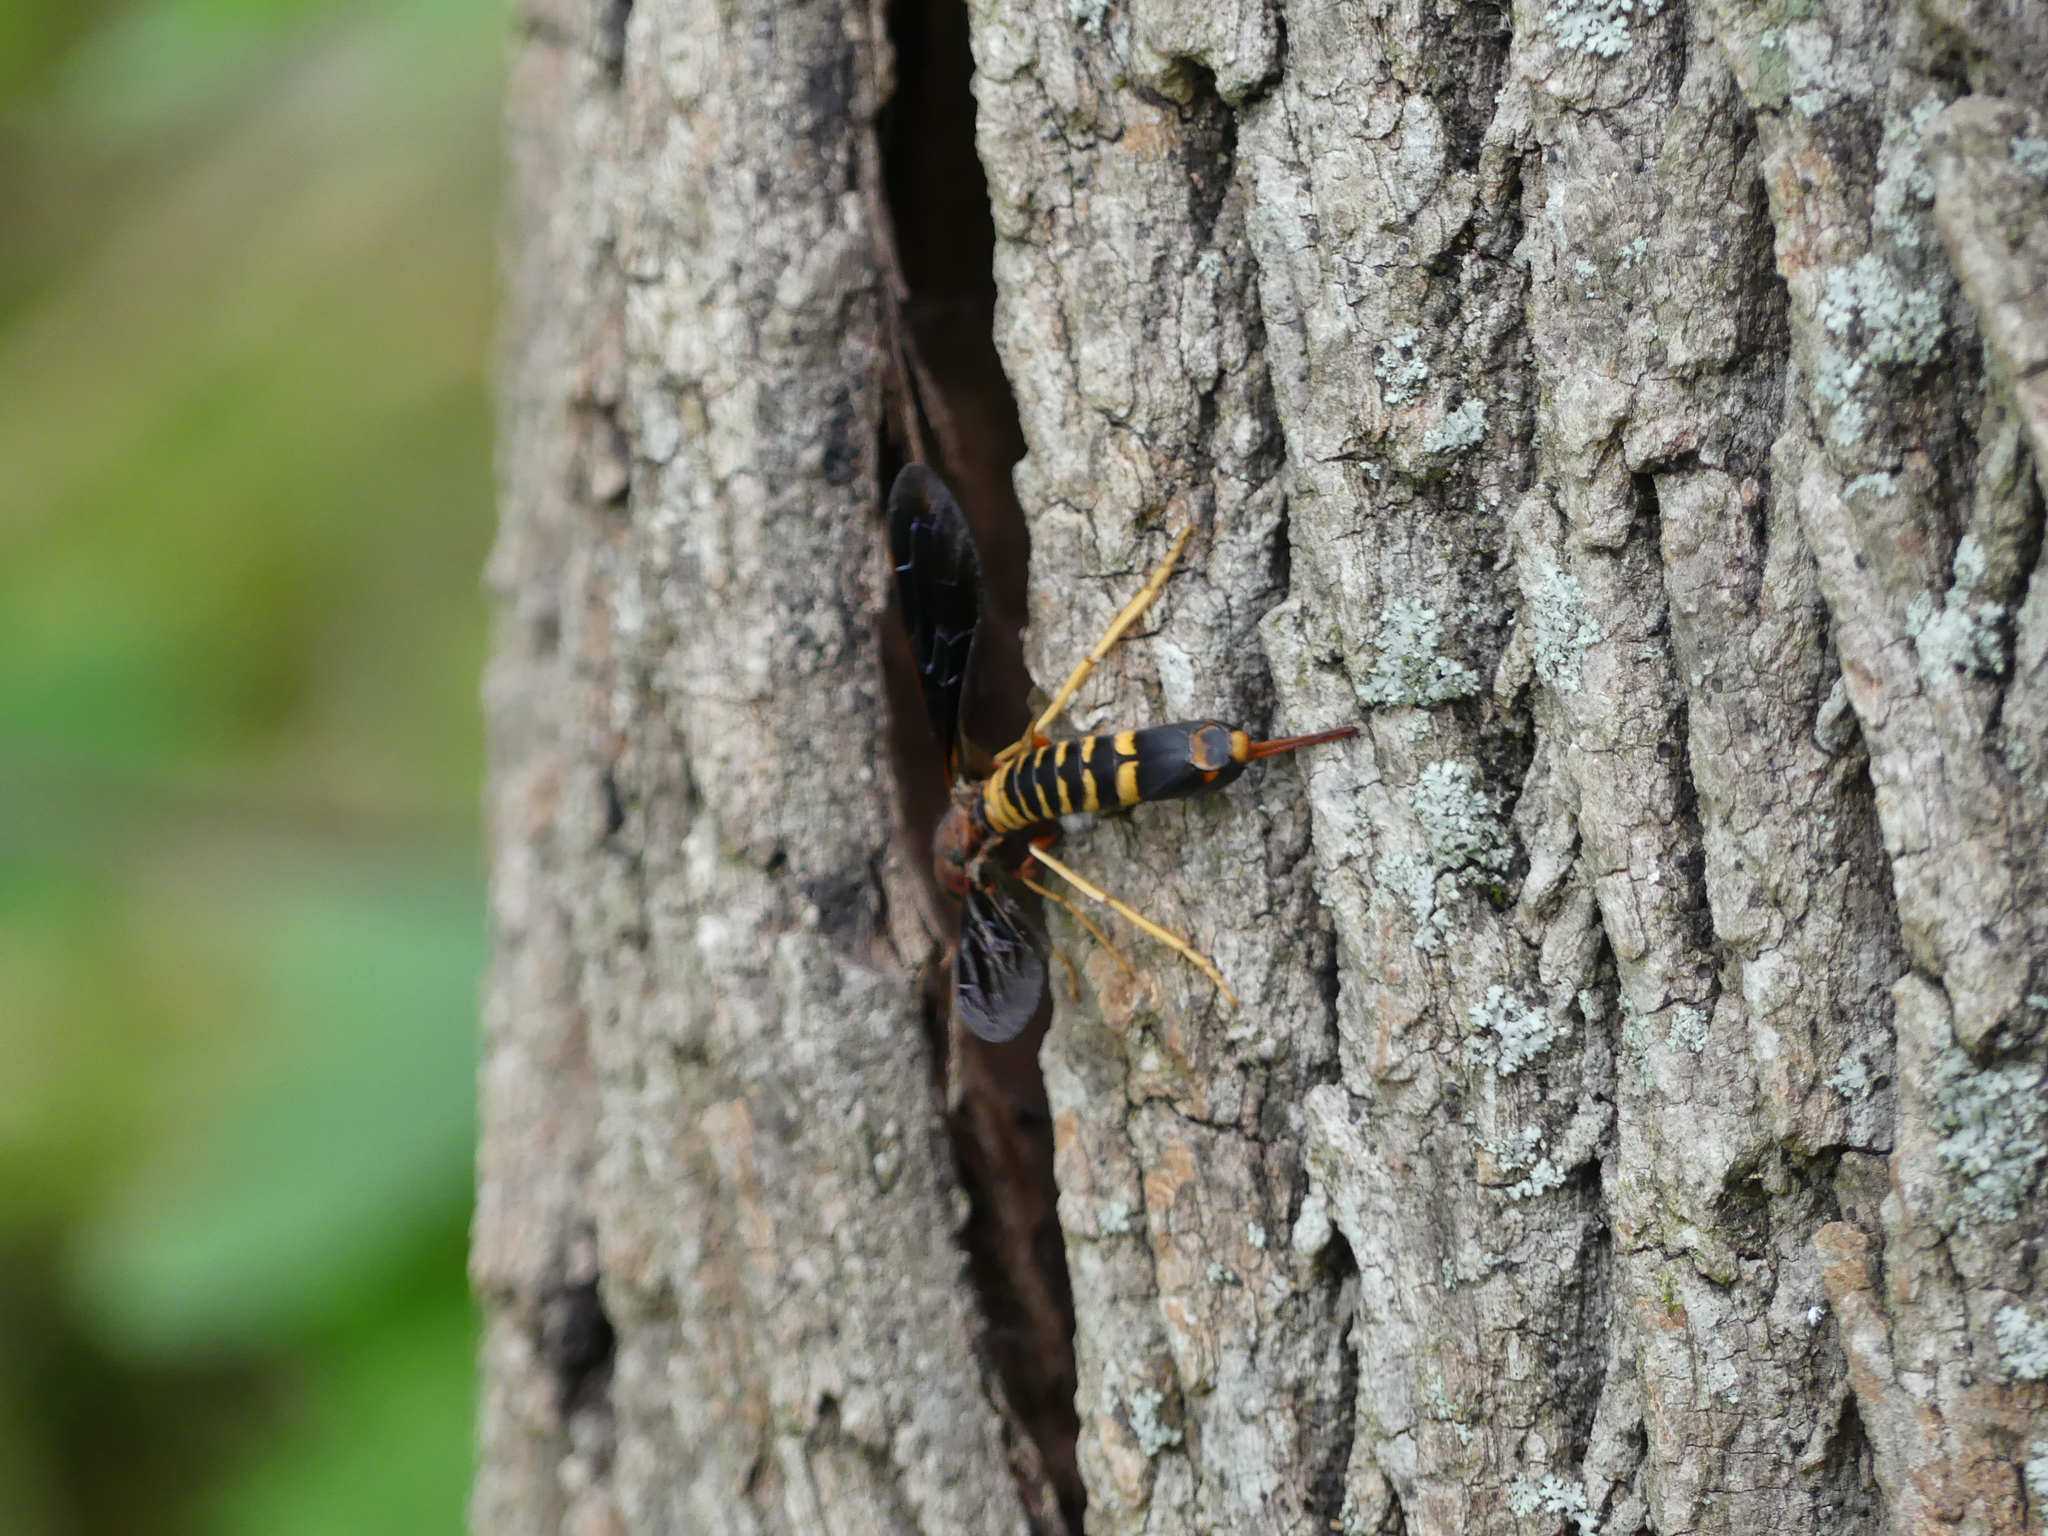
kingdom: Animalia
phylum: Arthropoda
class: Insecta
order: Hymenoptera
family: Siricidae
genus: Tremex
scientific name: Tremex columba
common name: Wasp
